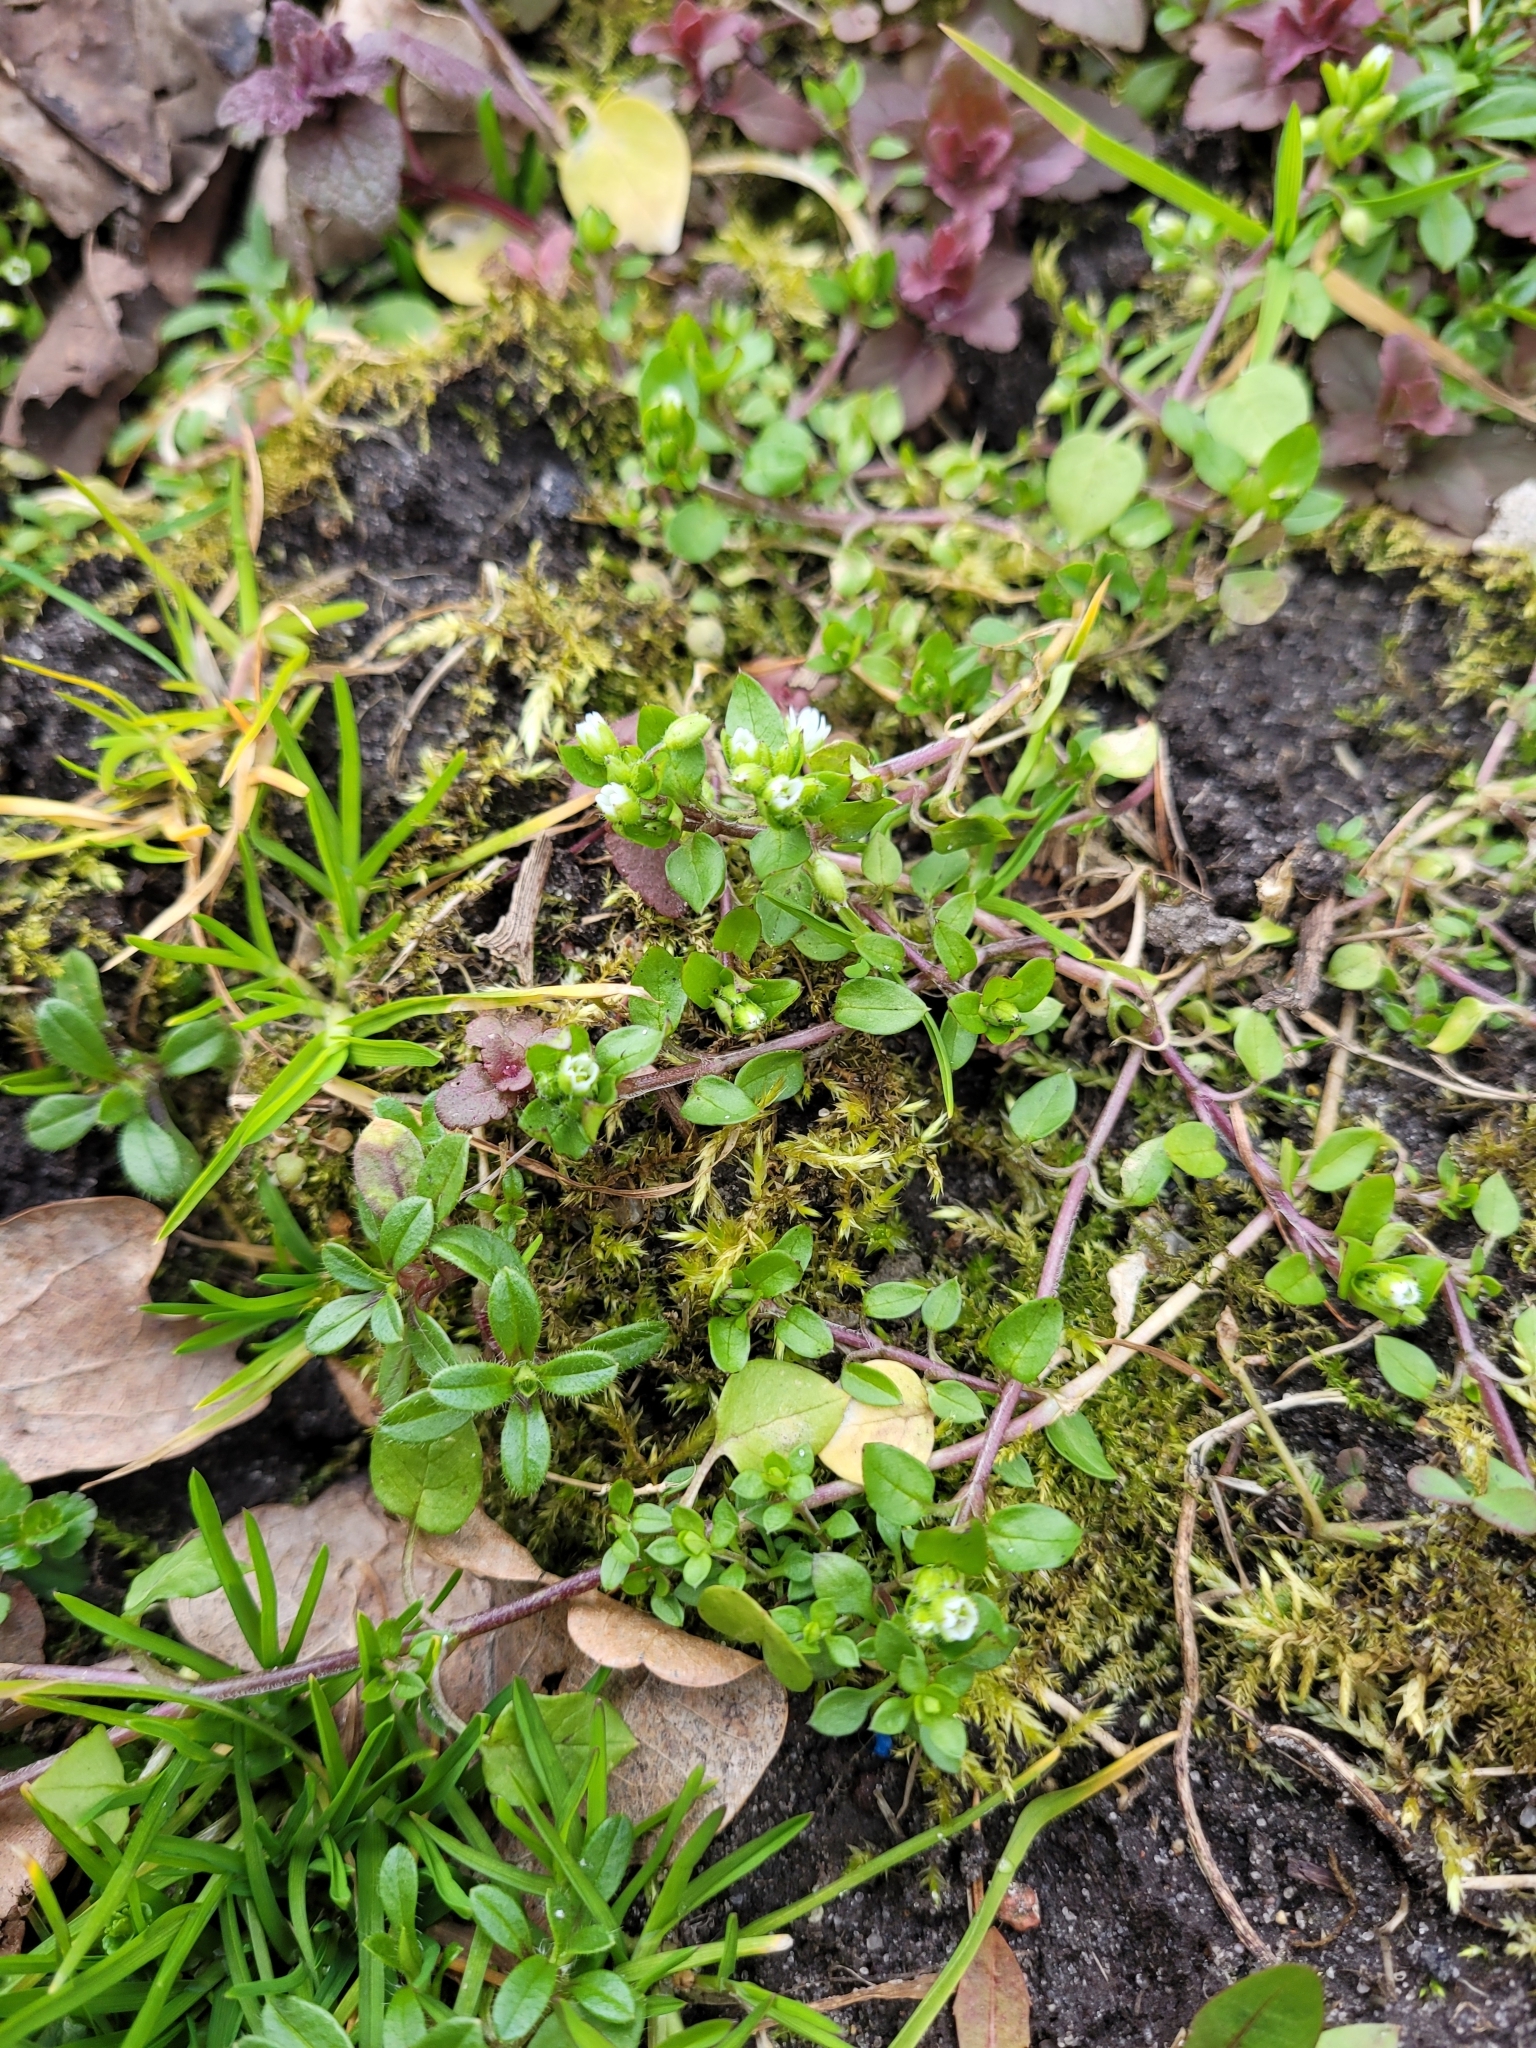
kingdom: Plantae
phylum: Tracheophyta
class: Magnoliopsida
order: Caryophyllales
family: Caryophyllaceae
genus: Stellaria
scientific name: Stellaria media
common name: Common chickweed
